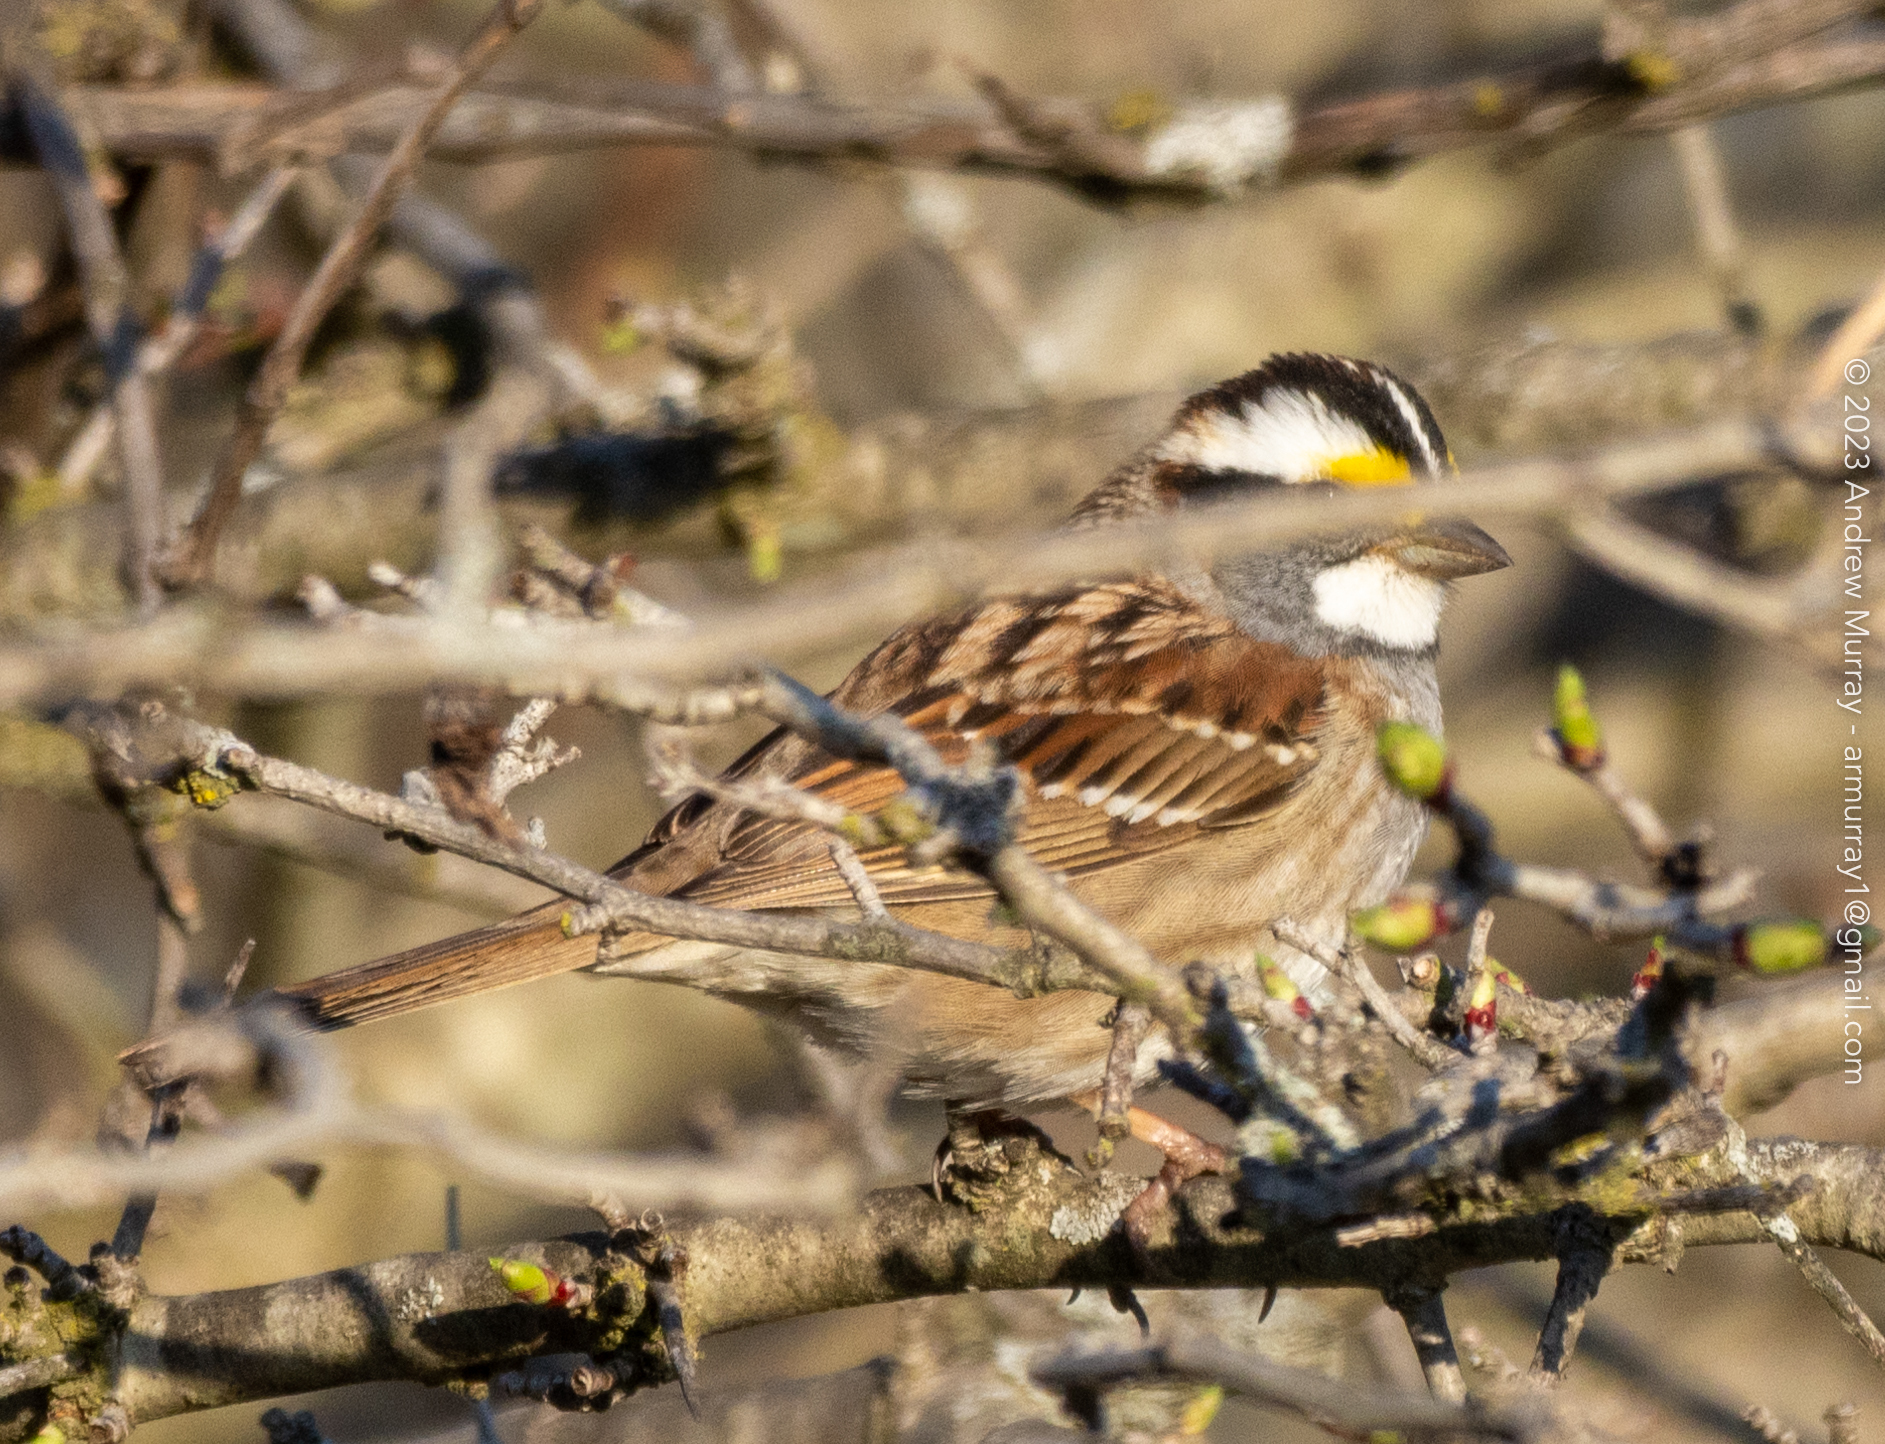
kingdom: Animalia
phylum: Chordata
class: Aves
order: Passeriformes
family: Passerellidae
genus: Zonotrichia
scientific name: Zonotrichia albicollis
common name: White-throated sparrow
